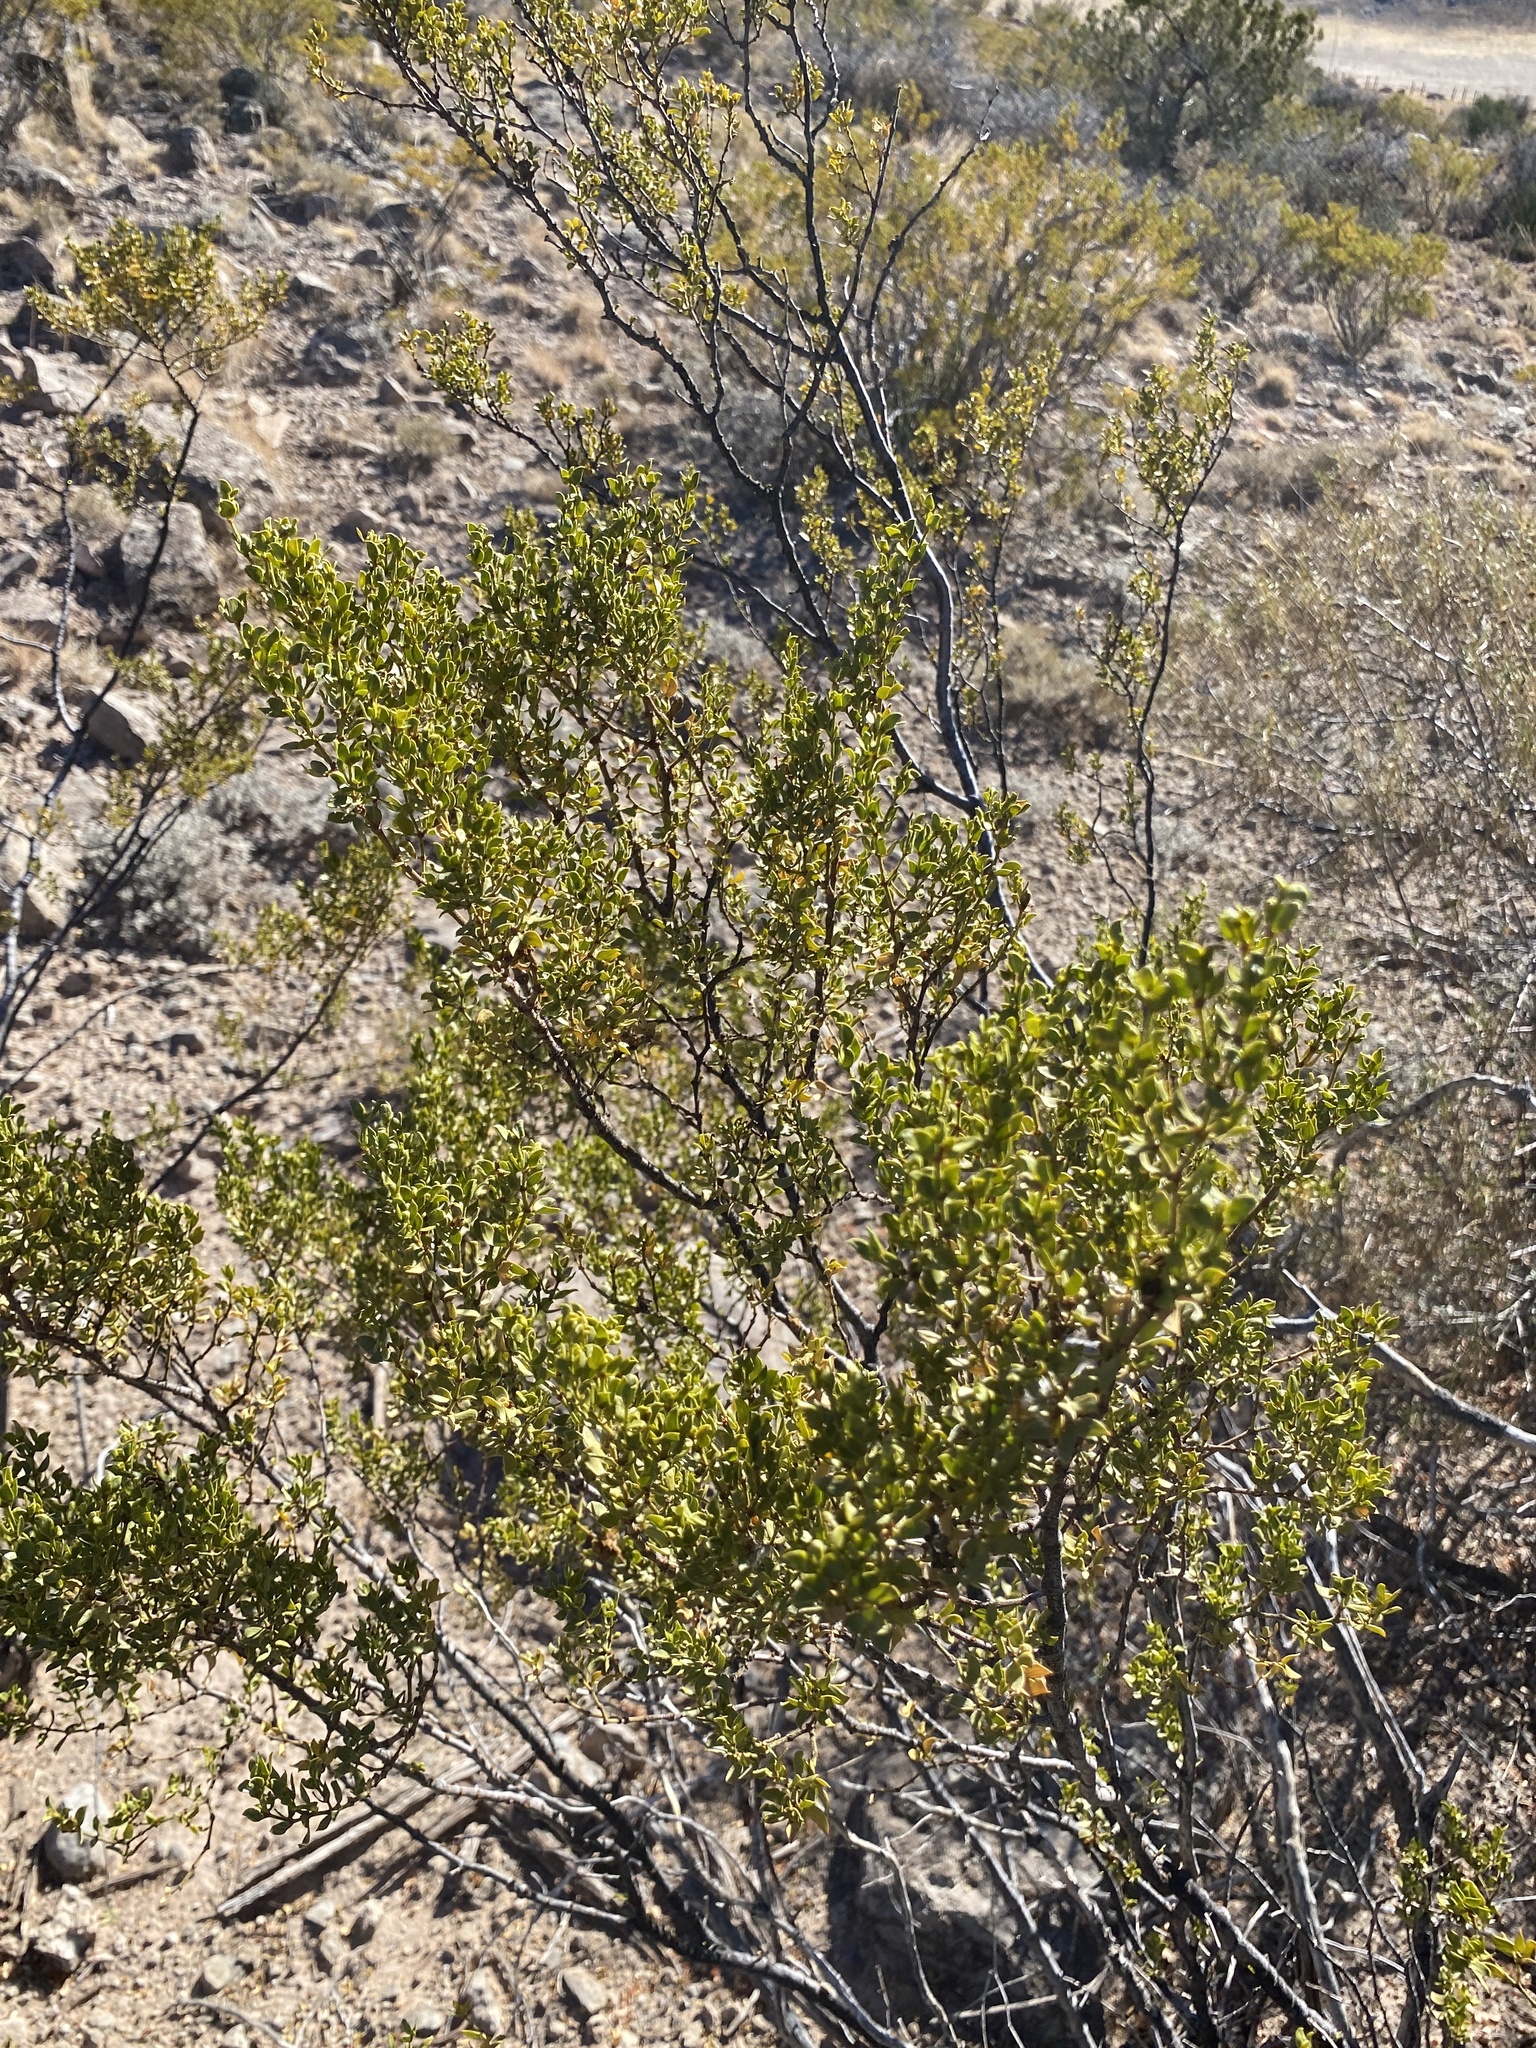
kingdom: Plantae
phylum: Tracheophyta
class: Magnoliopsida
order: Zygophyllales
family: Zygophyllaceae
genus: Larrea
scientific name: Larrea tridentata
